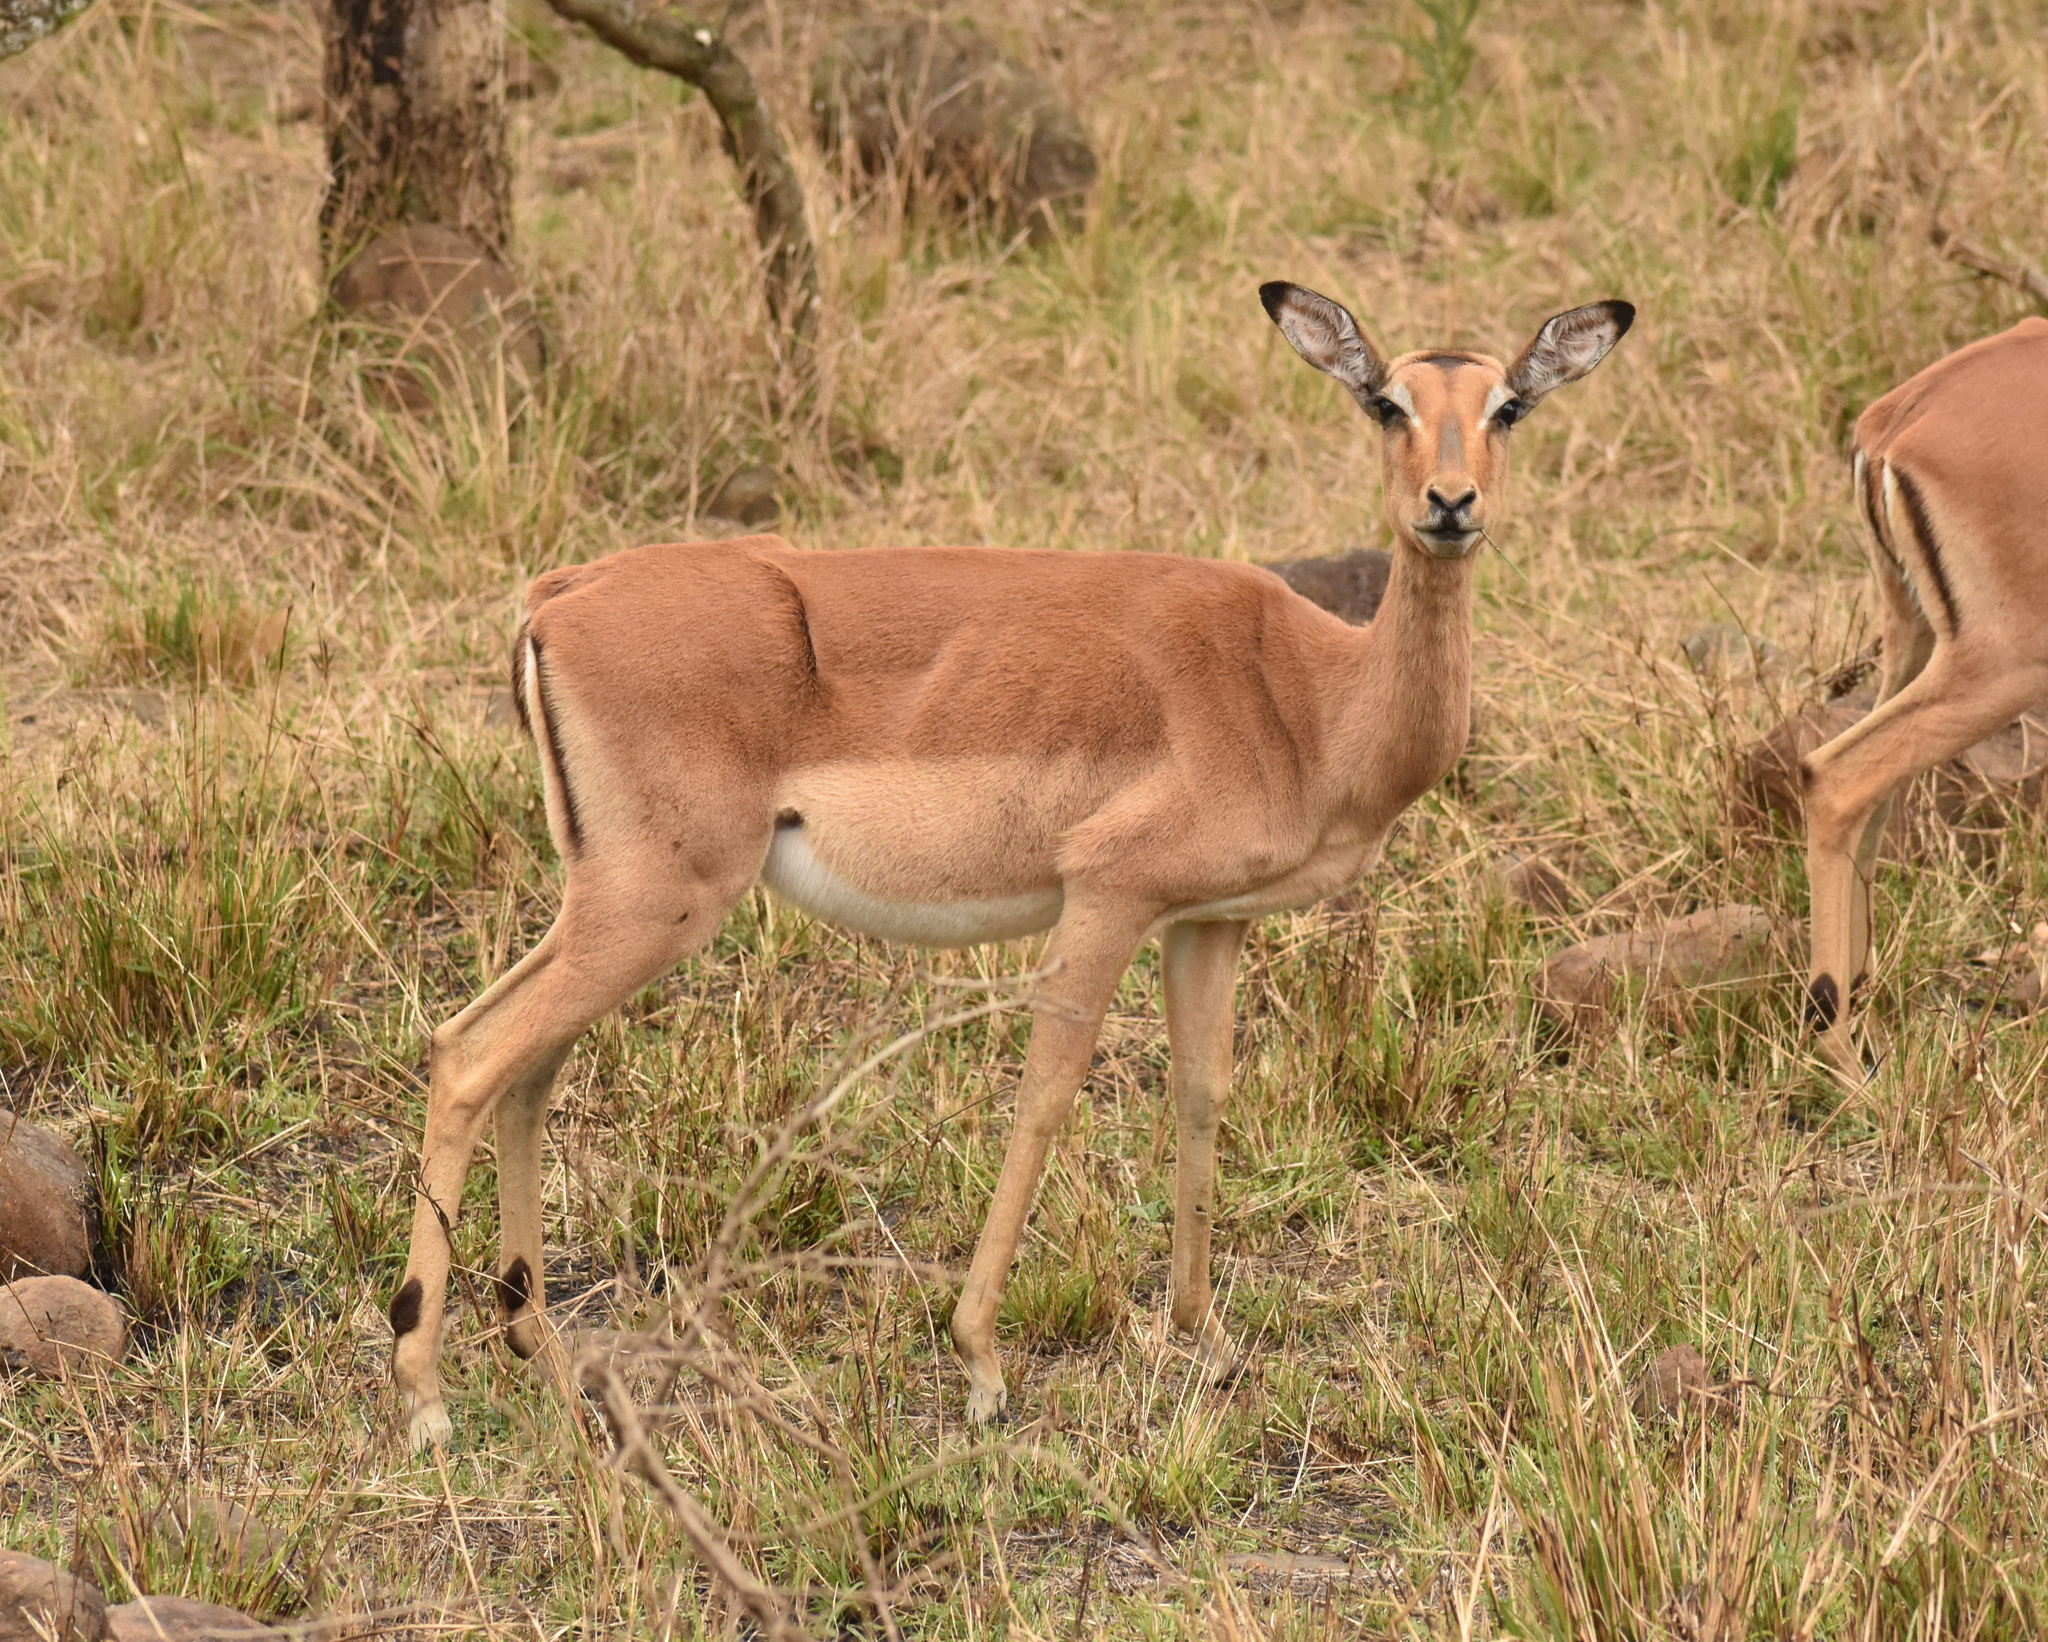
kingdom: Animalia
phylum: Chordata
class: Mammalia
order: Artiodactyla
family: Bovidae
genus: Aepyceros
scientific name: Aepyceros melampus
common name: Impala
